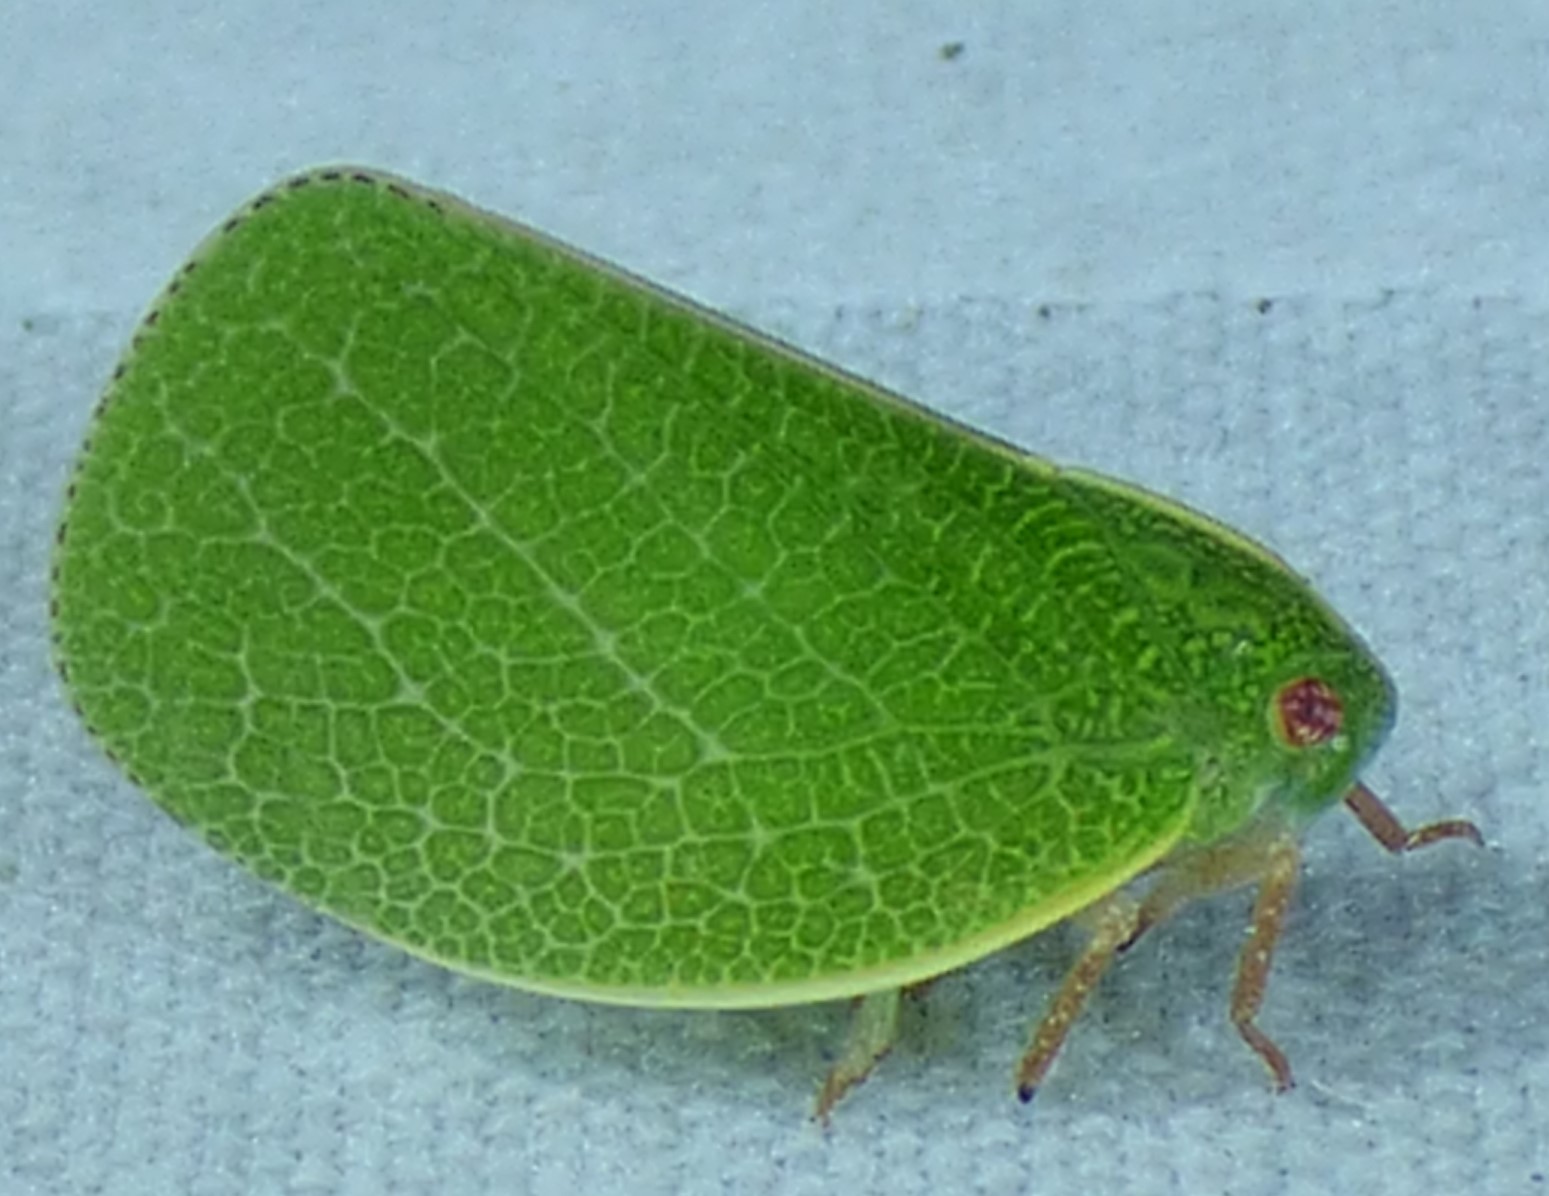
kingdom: Animalia
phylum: Arthropoda
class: Insecta
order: Hemiptera
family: Acanaloniidae
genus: Acanalonia
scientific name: Acanalonia servillei
